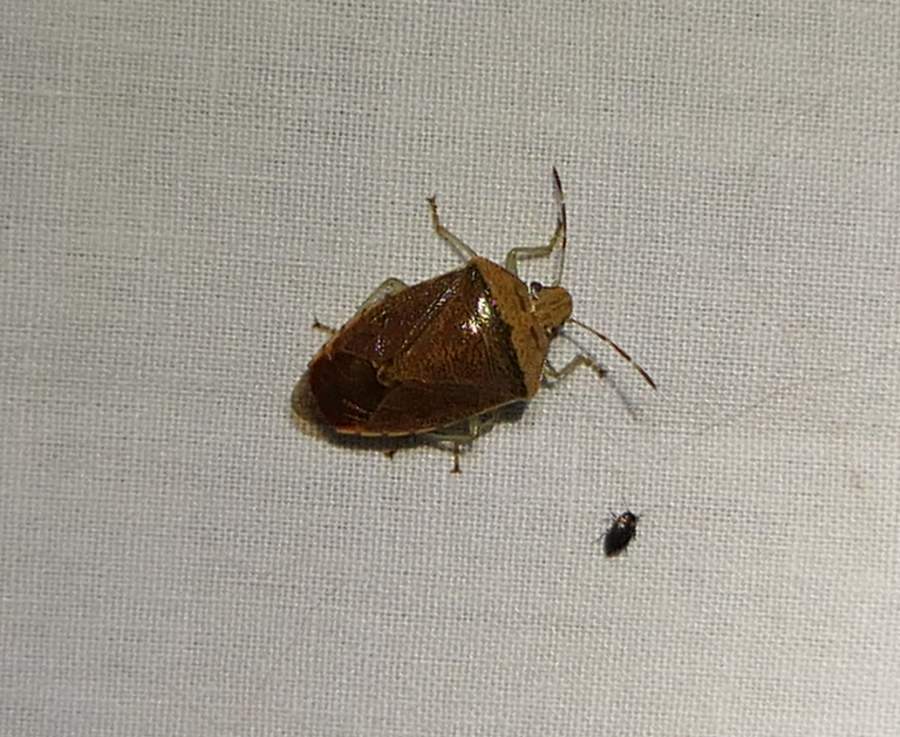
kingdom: Animalia
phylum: Arthropoda
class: Insecta
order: Hemiptera
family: Pentatomidae
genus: Banasa
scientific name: Banasa calva
